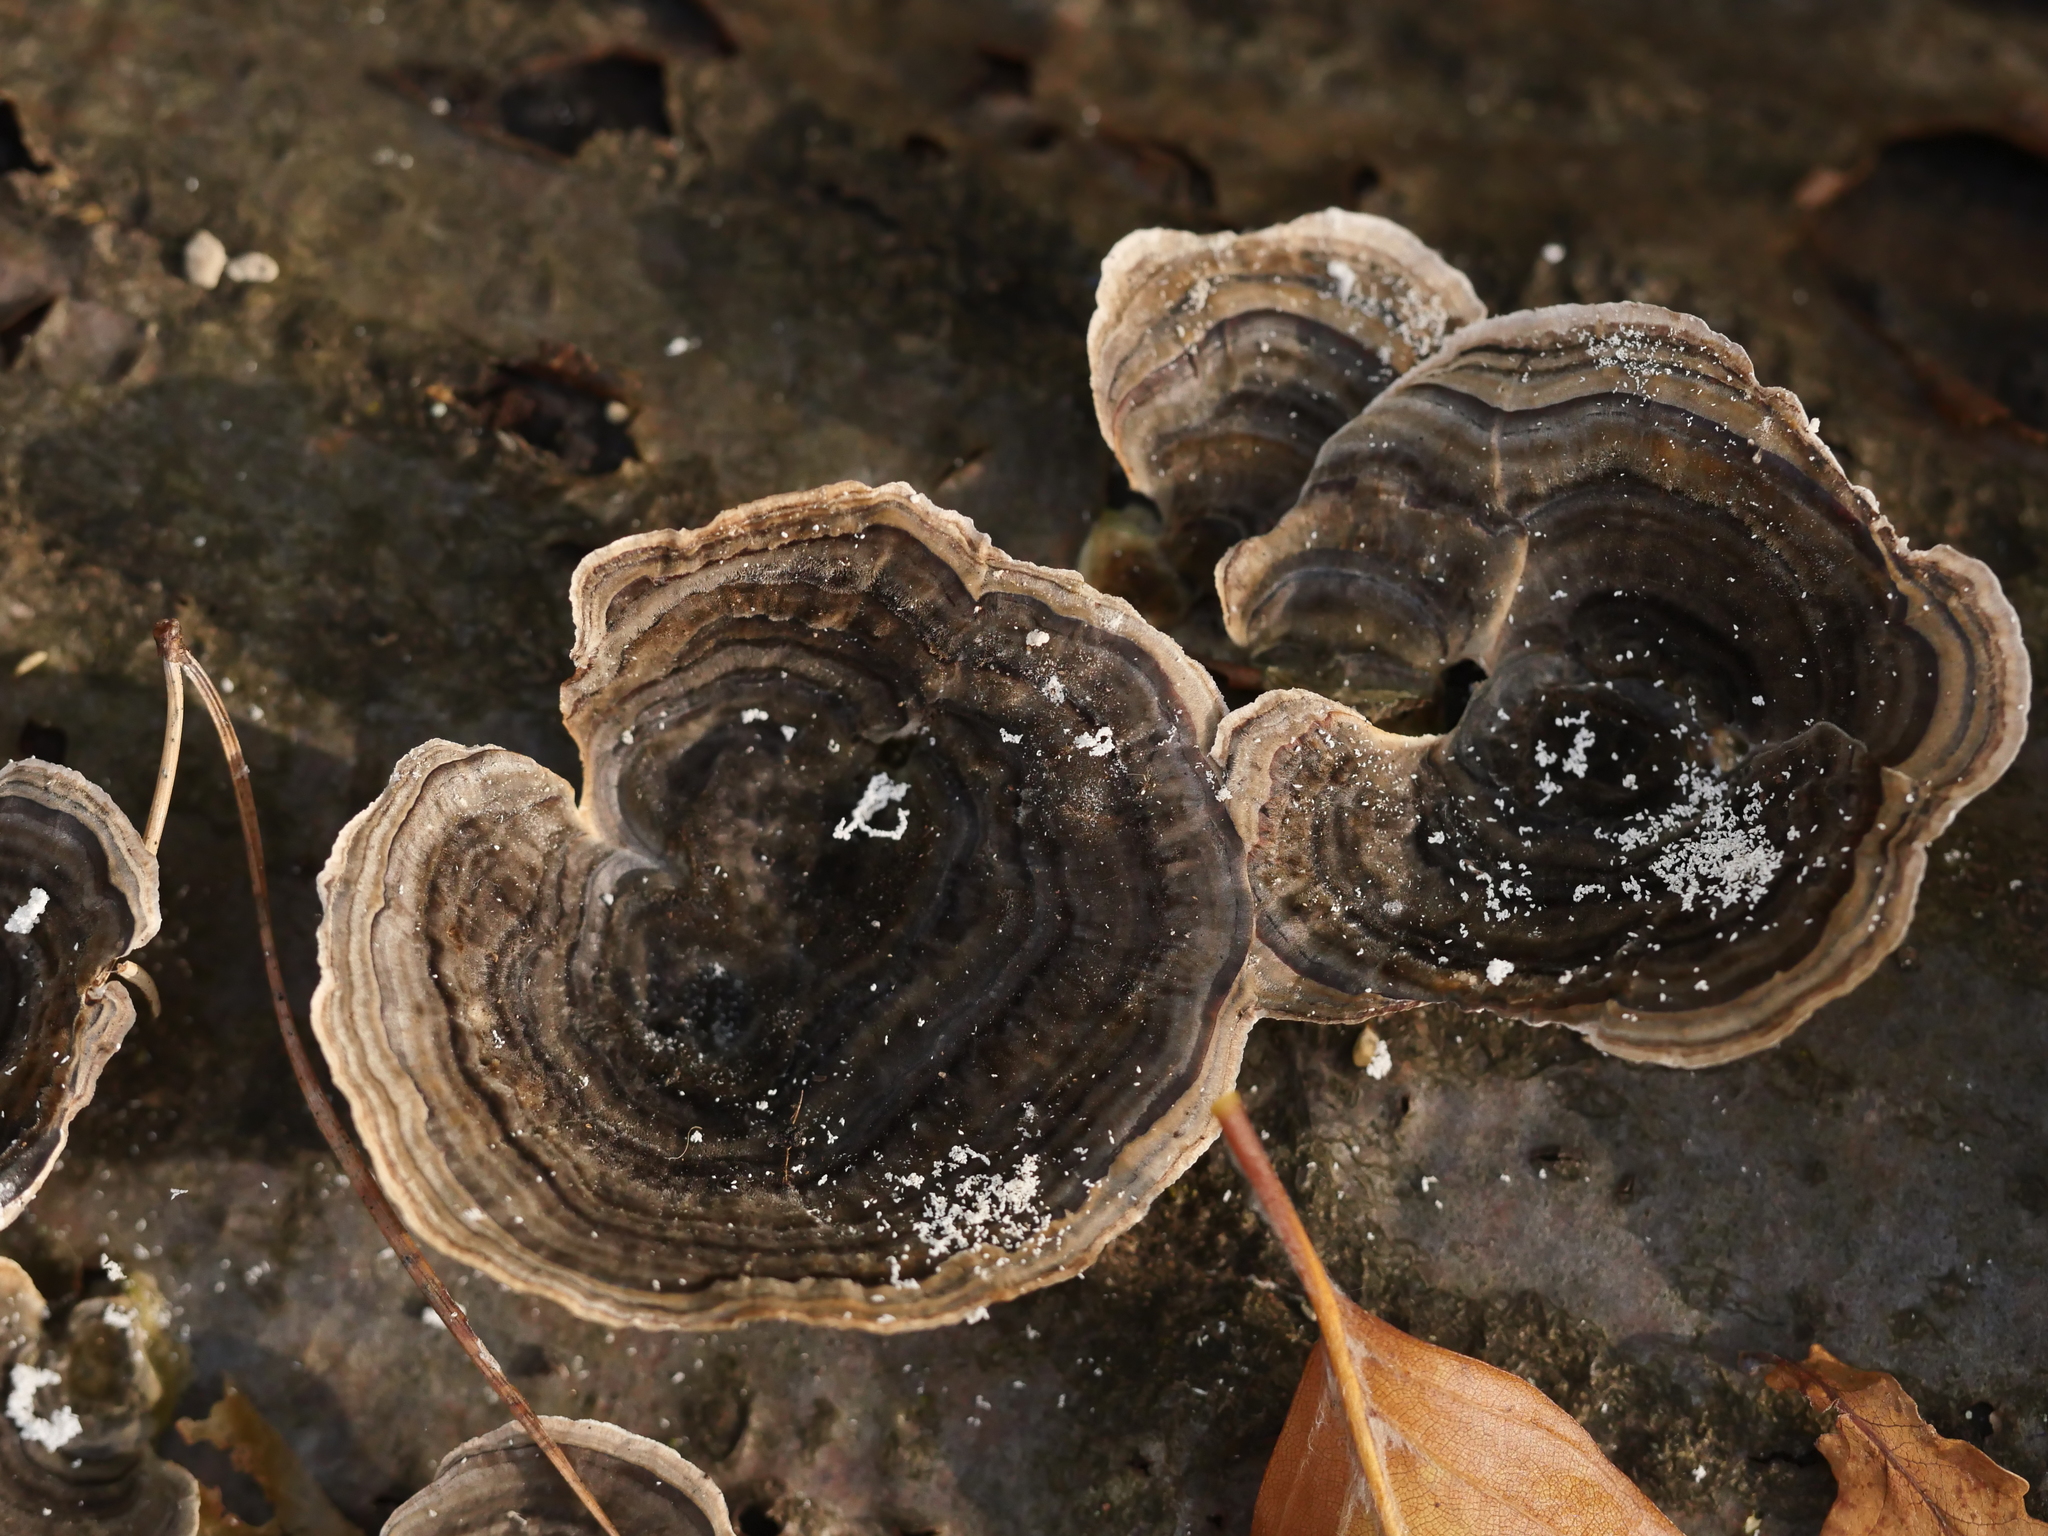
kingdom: Fungi
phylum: Basidiomycota
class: Agaricomycetes
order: Polyporales
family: Polyporaceae
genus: Trametes
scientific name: Trametes versicolor
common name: Turkeytail
